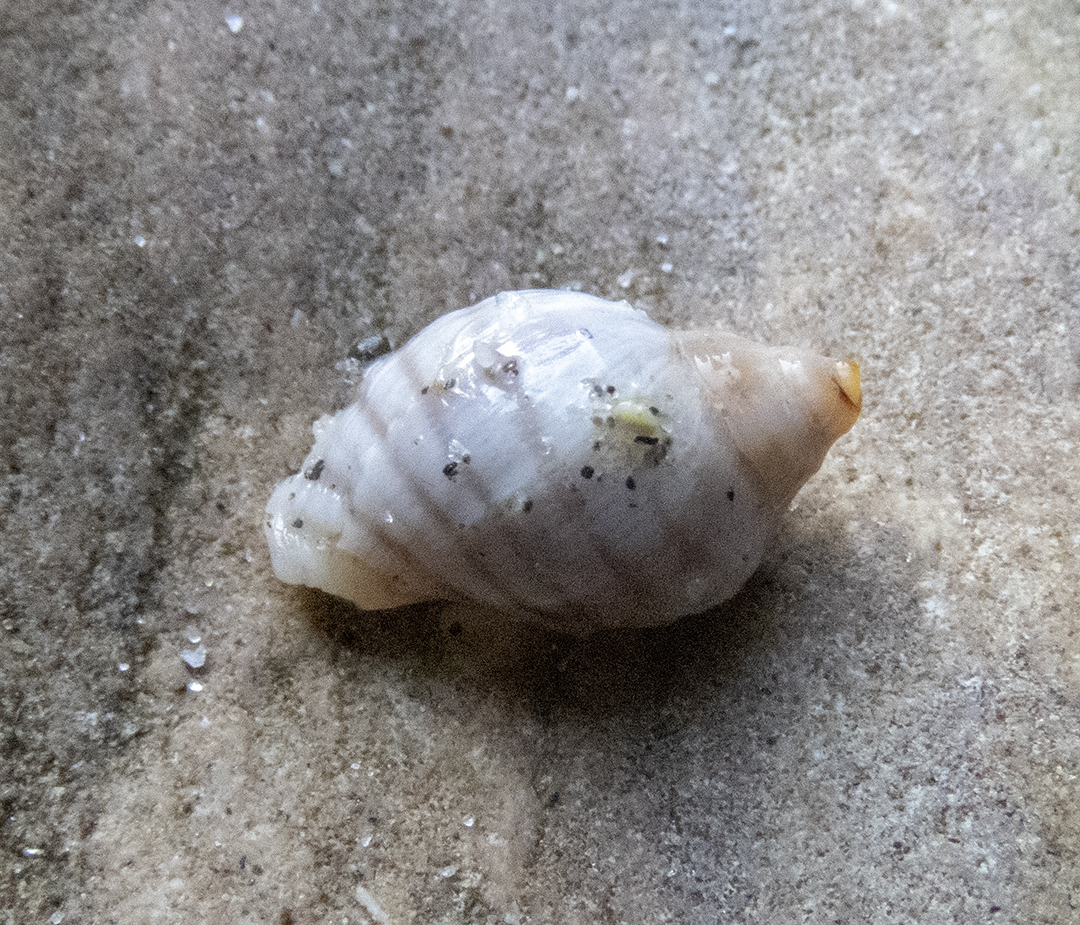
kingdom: Animalia
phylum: Mollusca
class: Gastropoda
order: Neogastropoda
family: Muricidae
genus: Paratrophon
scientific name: Paratrophon patens
